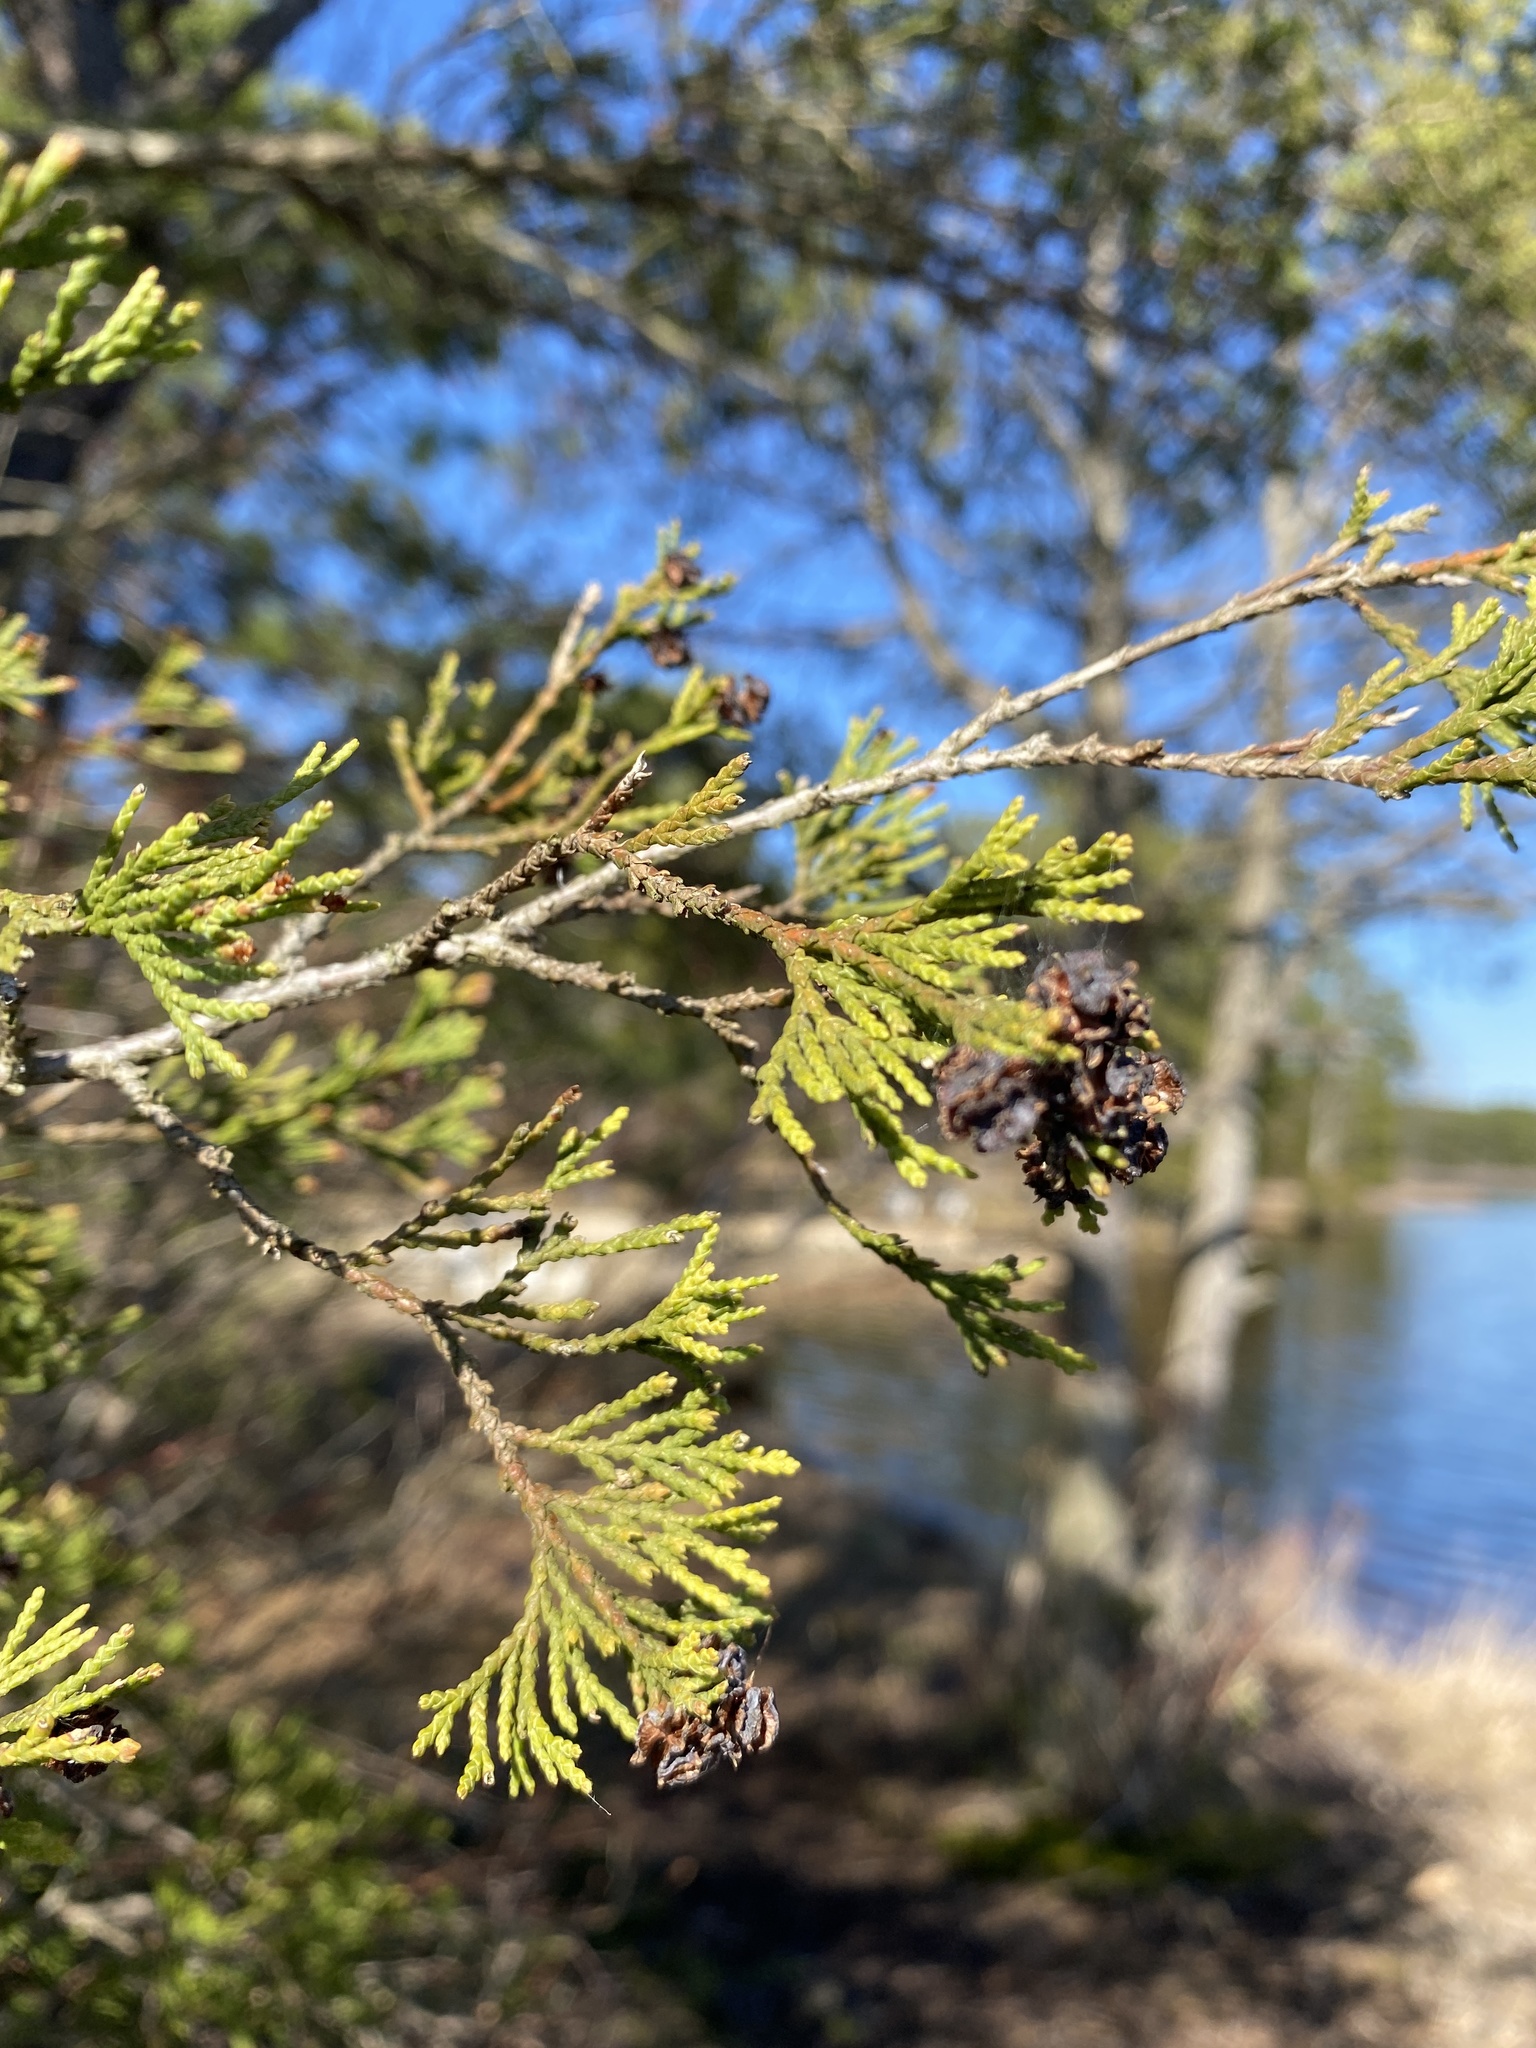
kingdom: Plantae
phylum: Tracheophyta
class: Pinopsida
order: Pinales
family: Cupressaceae
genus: Chamaecyparis
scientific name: Chamaecyparis thyoides
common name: Atlantic white cedar
